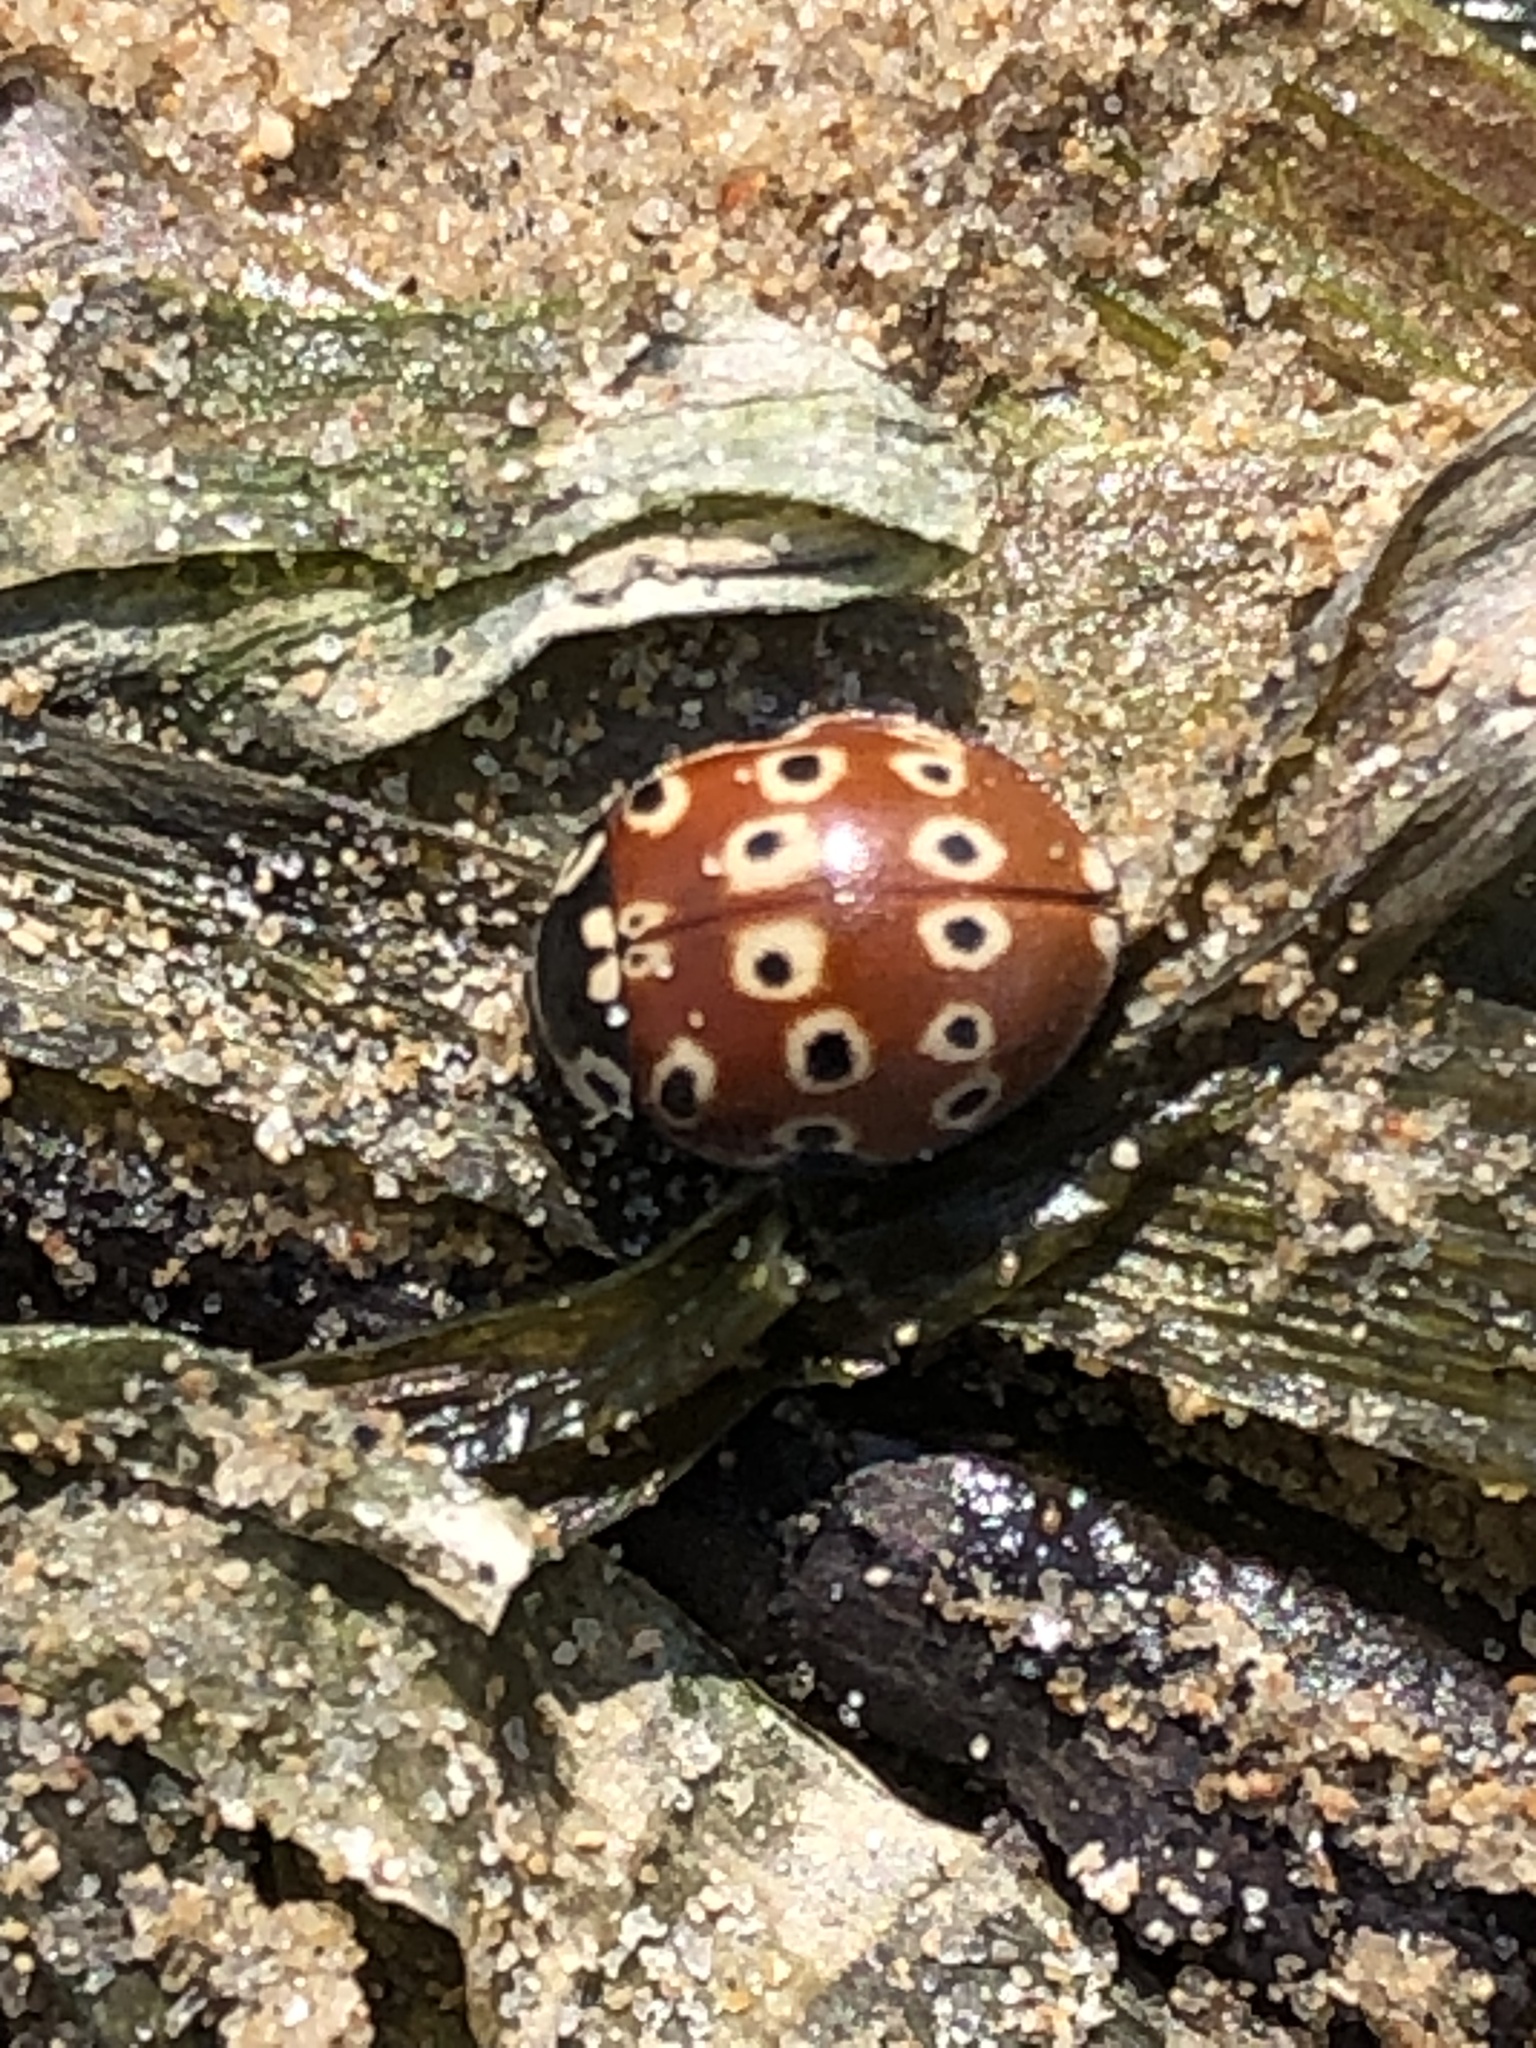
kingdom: Animalia
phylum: Arthropoda
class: Insecta
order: Coleoptera
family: Coccinellidae
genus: Anatis
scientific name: Anatis mali
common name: Eye-spotted lady beetle
